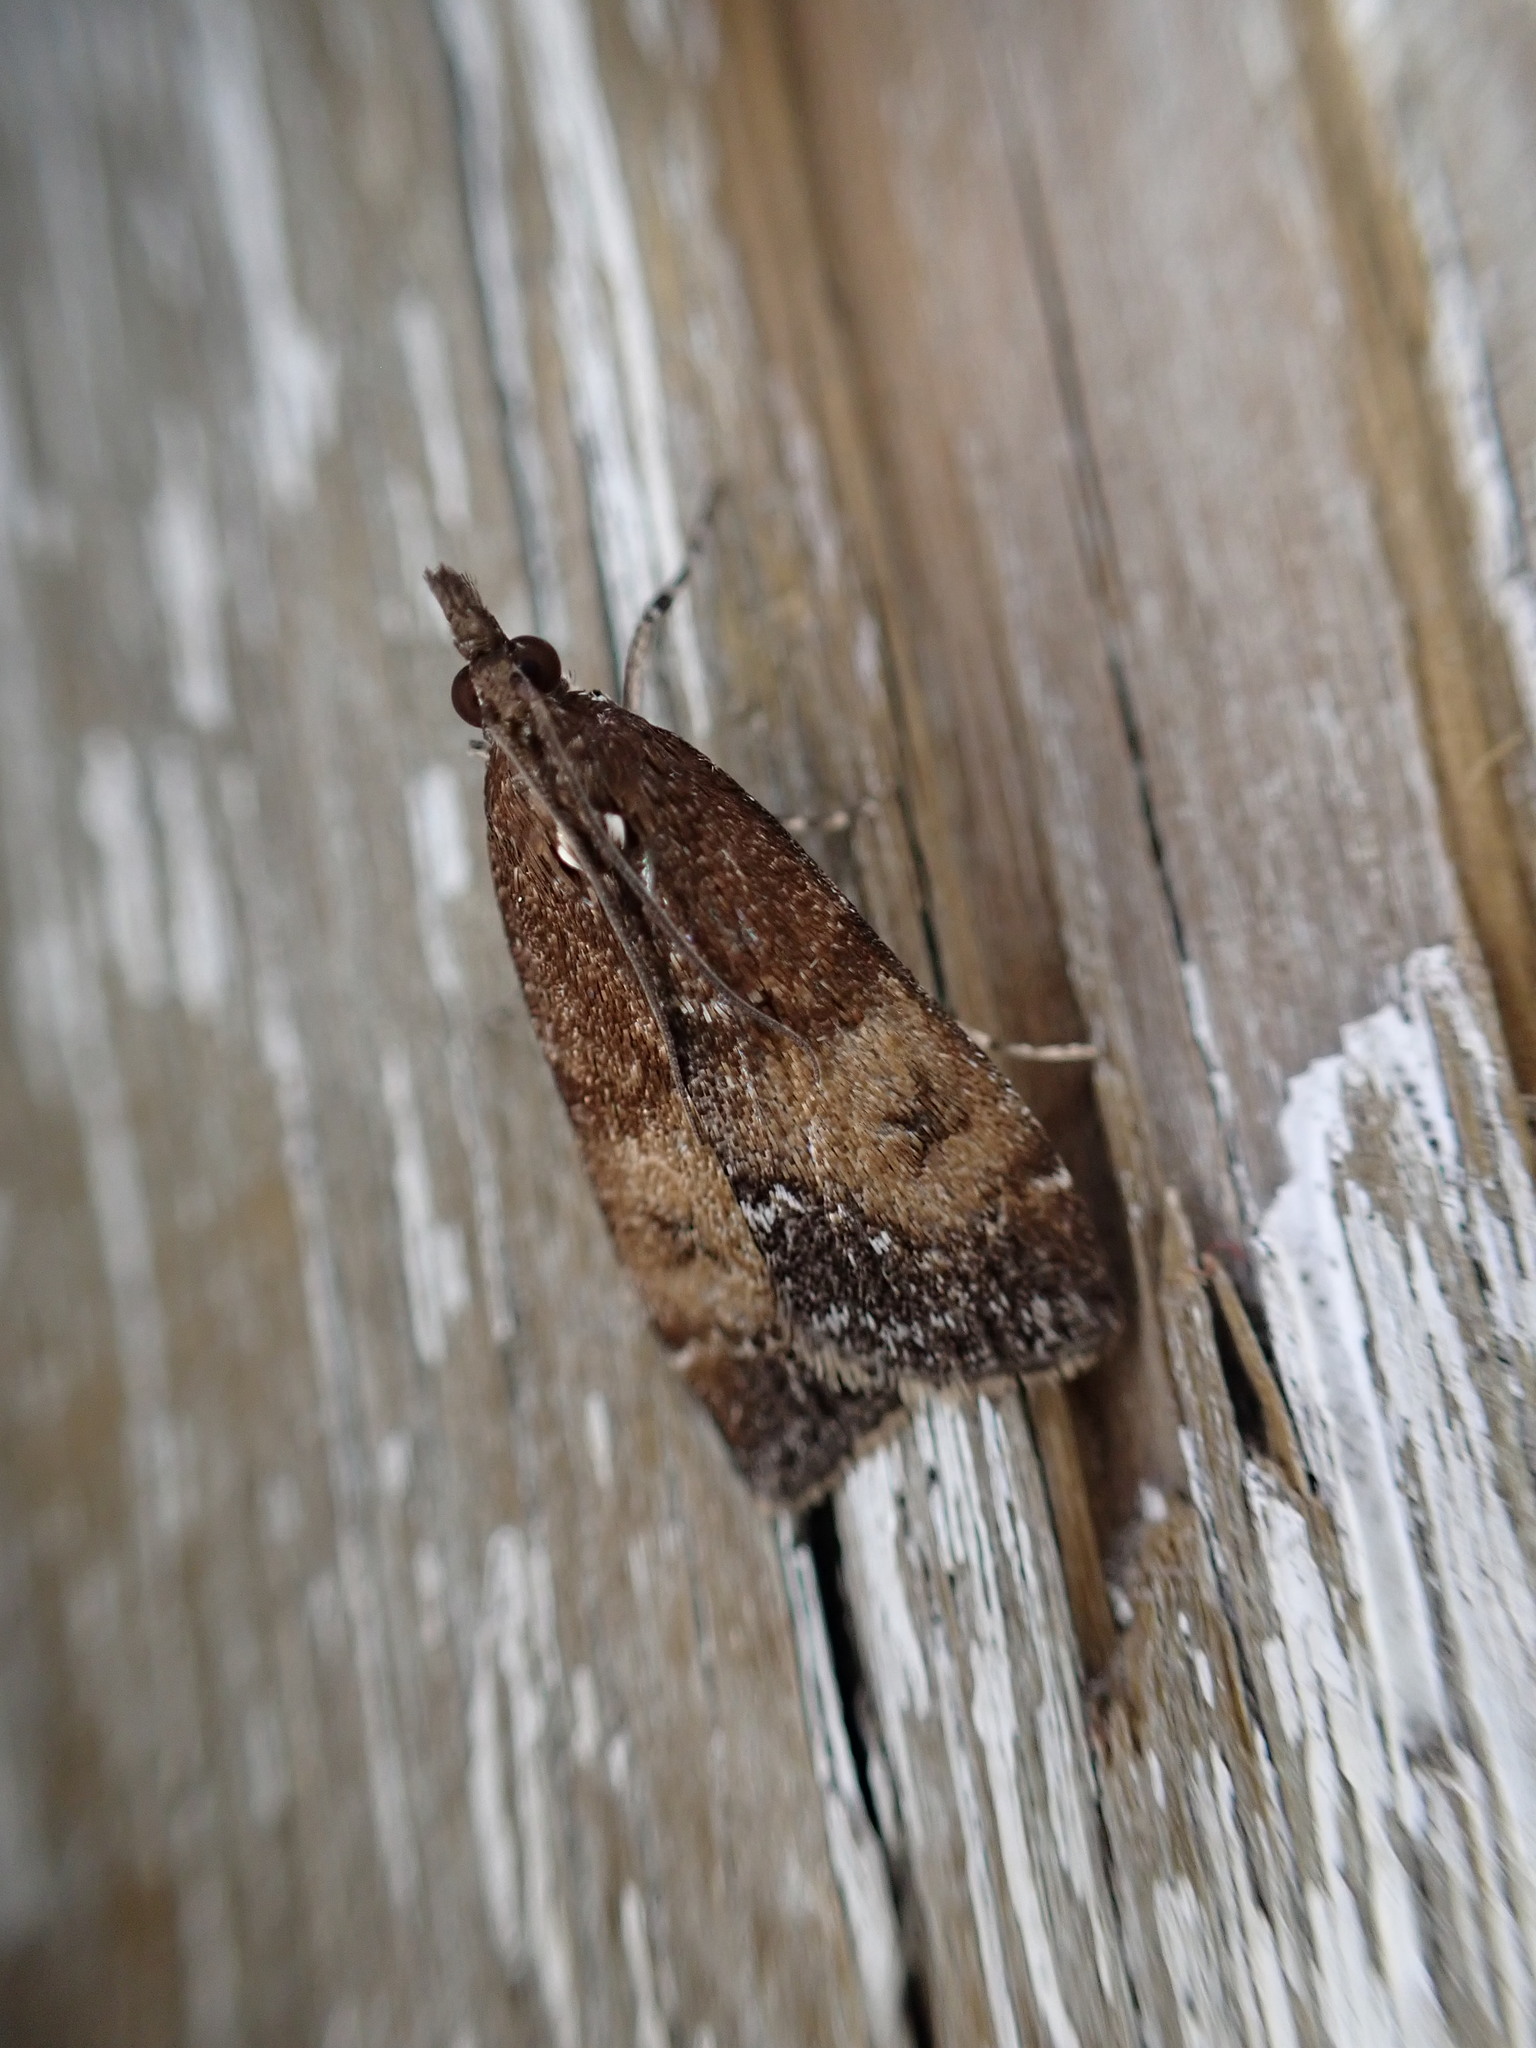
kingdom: Animalia
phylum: Arthropoda
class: Insecta
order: Lepidoptera
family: Crambidae
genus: Eudonia
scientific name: Eudonia asterisca
